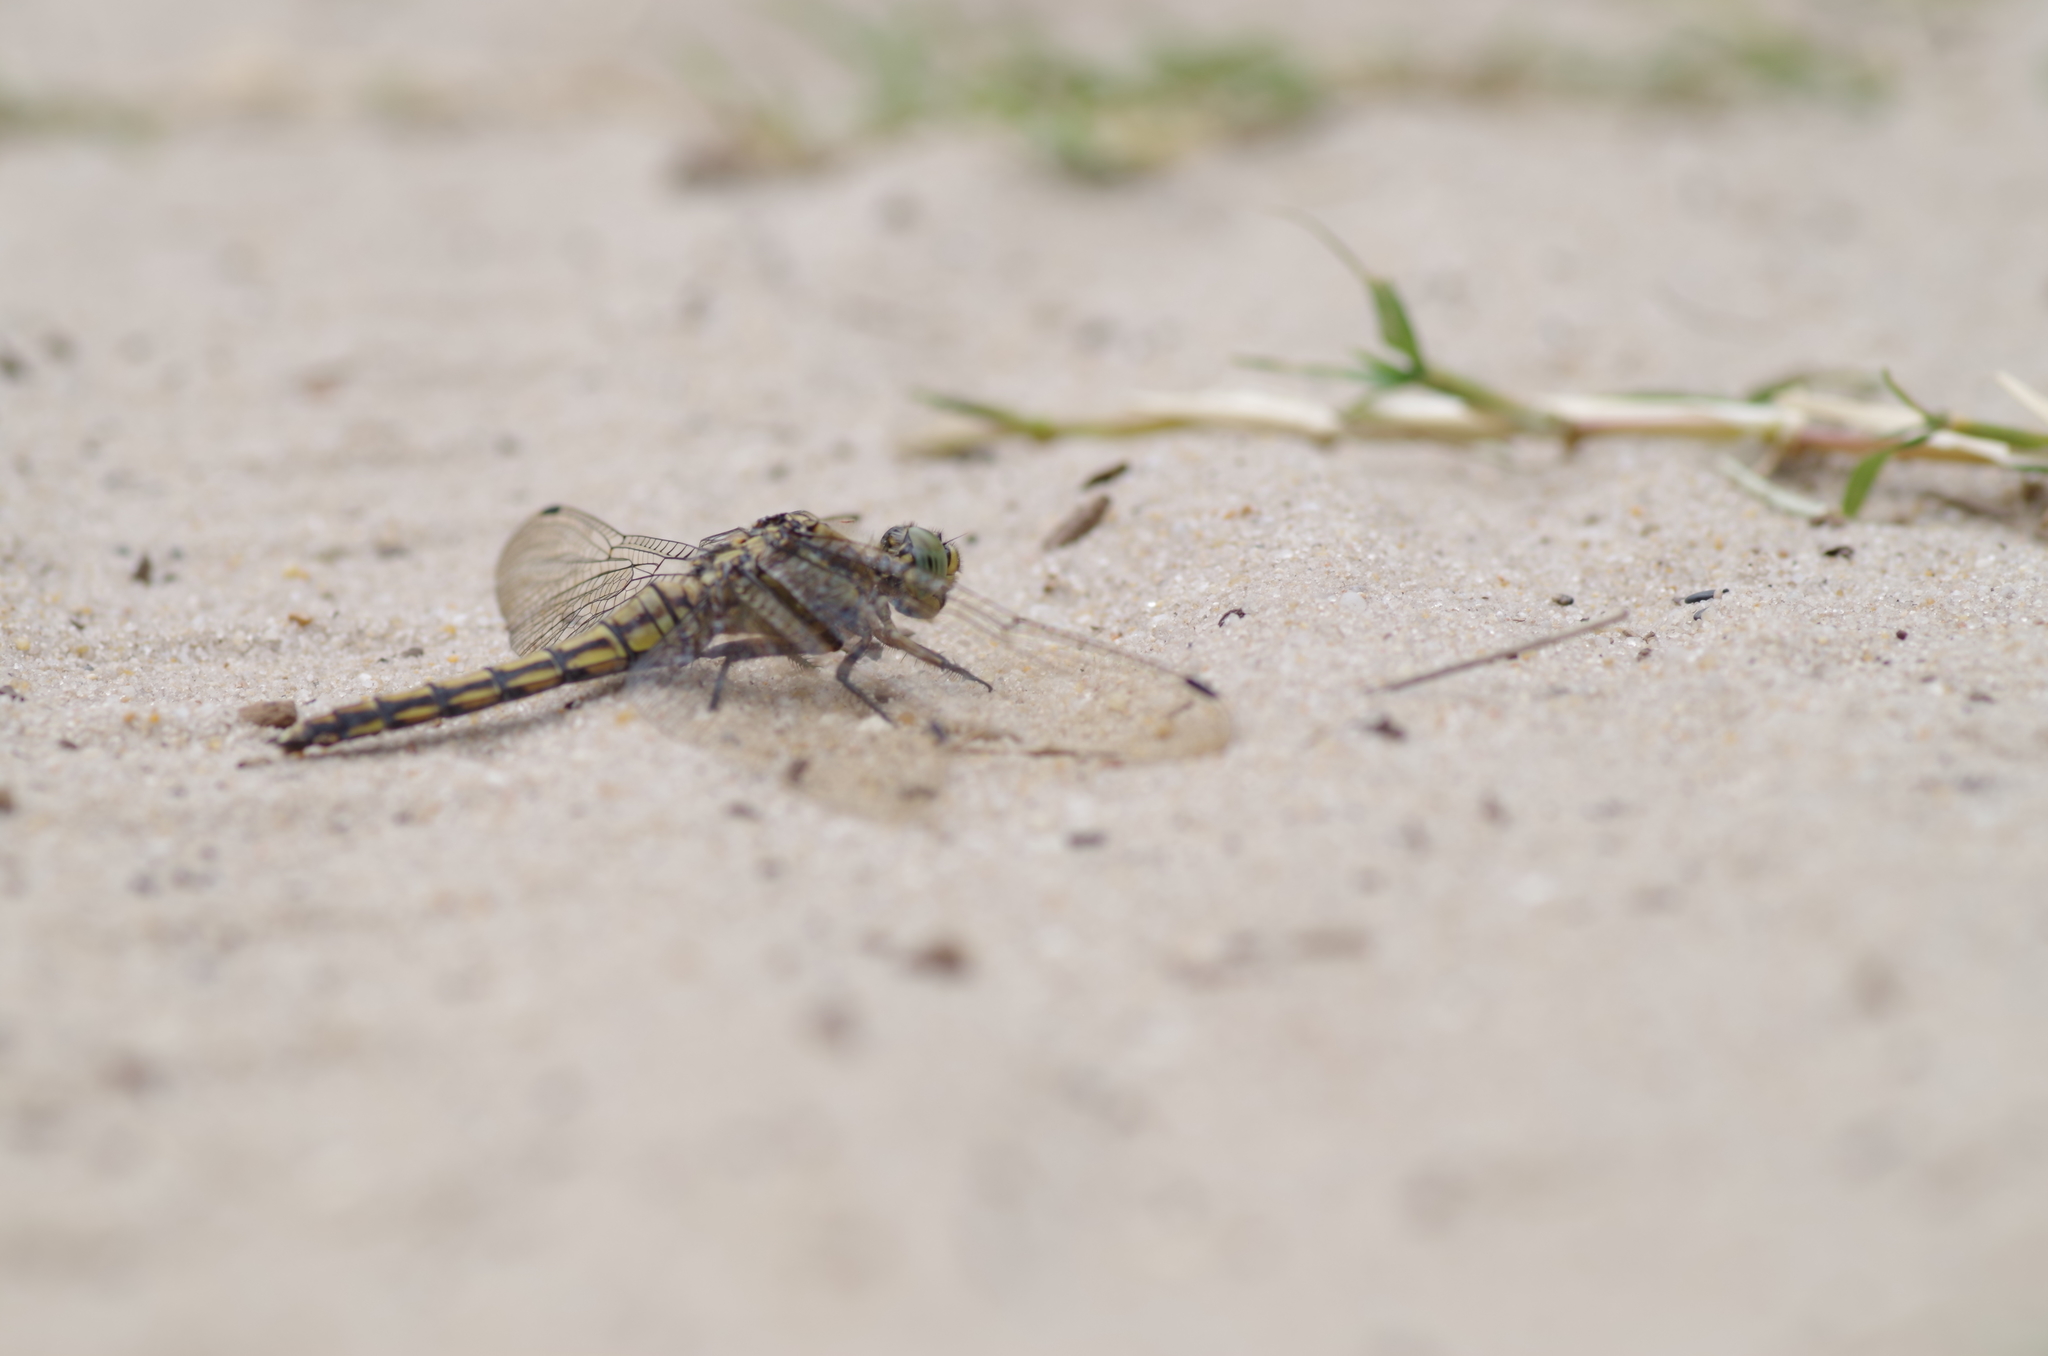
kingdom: Animalia
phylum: Arthropoda
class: Insecta
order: Odonata
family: Libellulidae
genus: Orthetrum
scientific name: Orthetrum cancellatum
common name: Black-tailed skimmer
